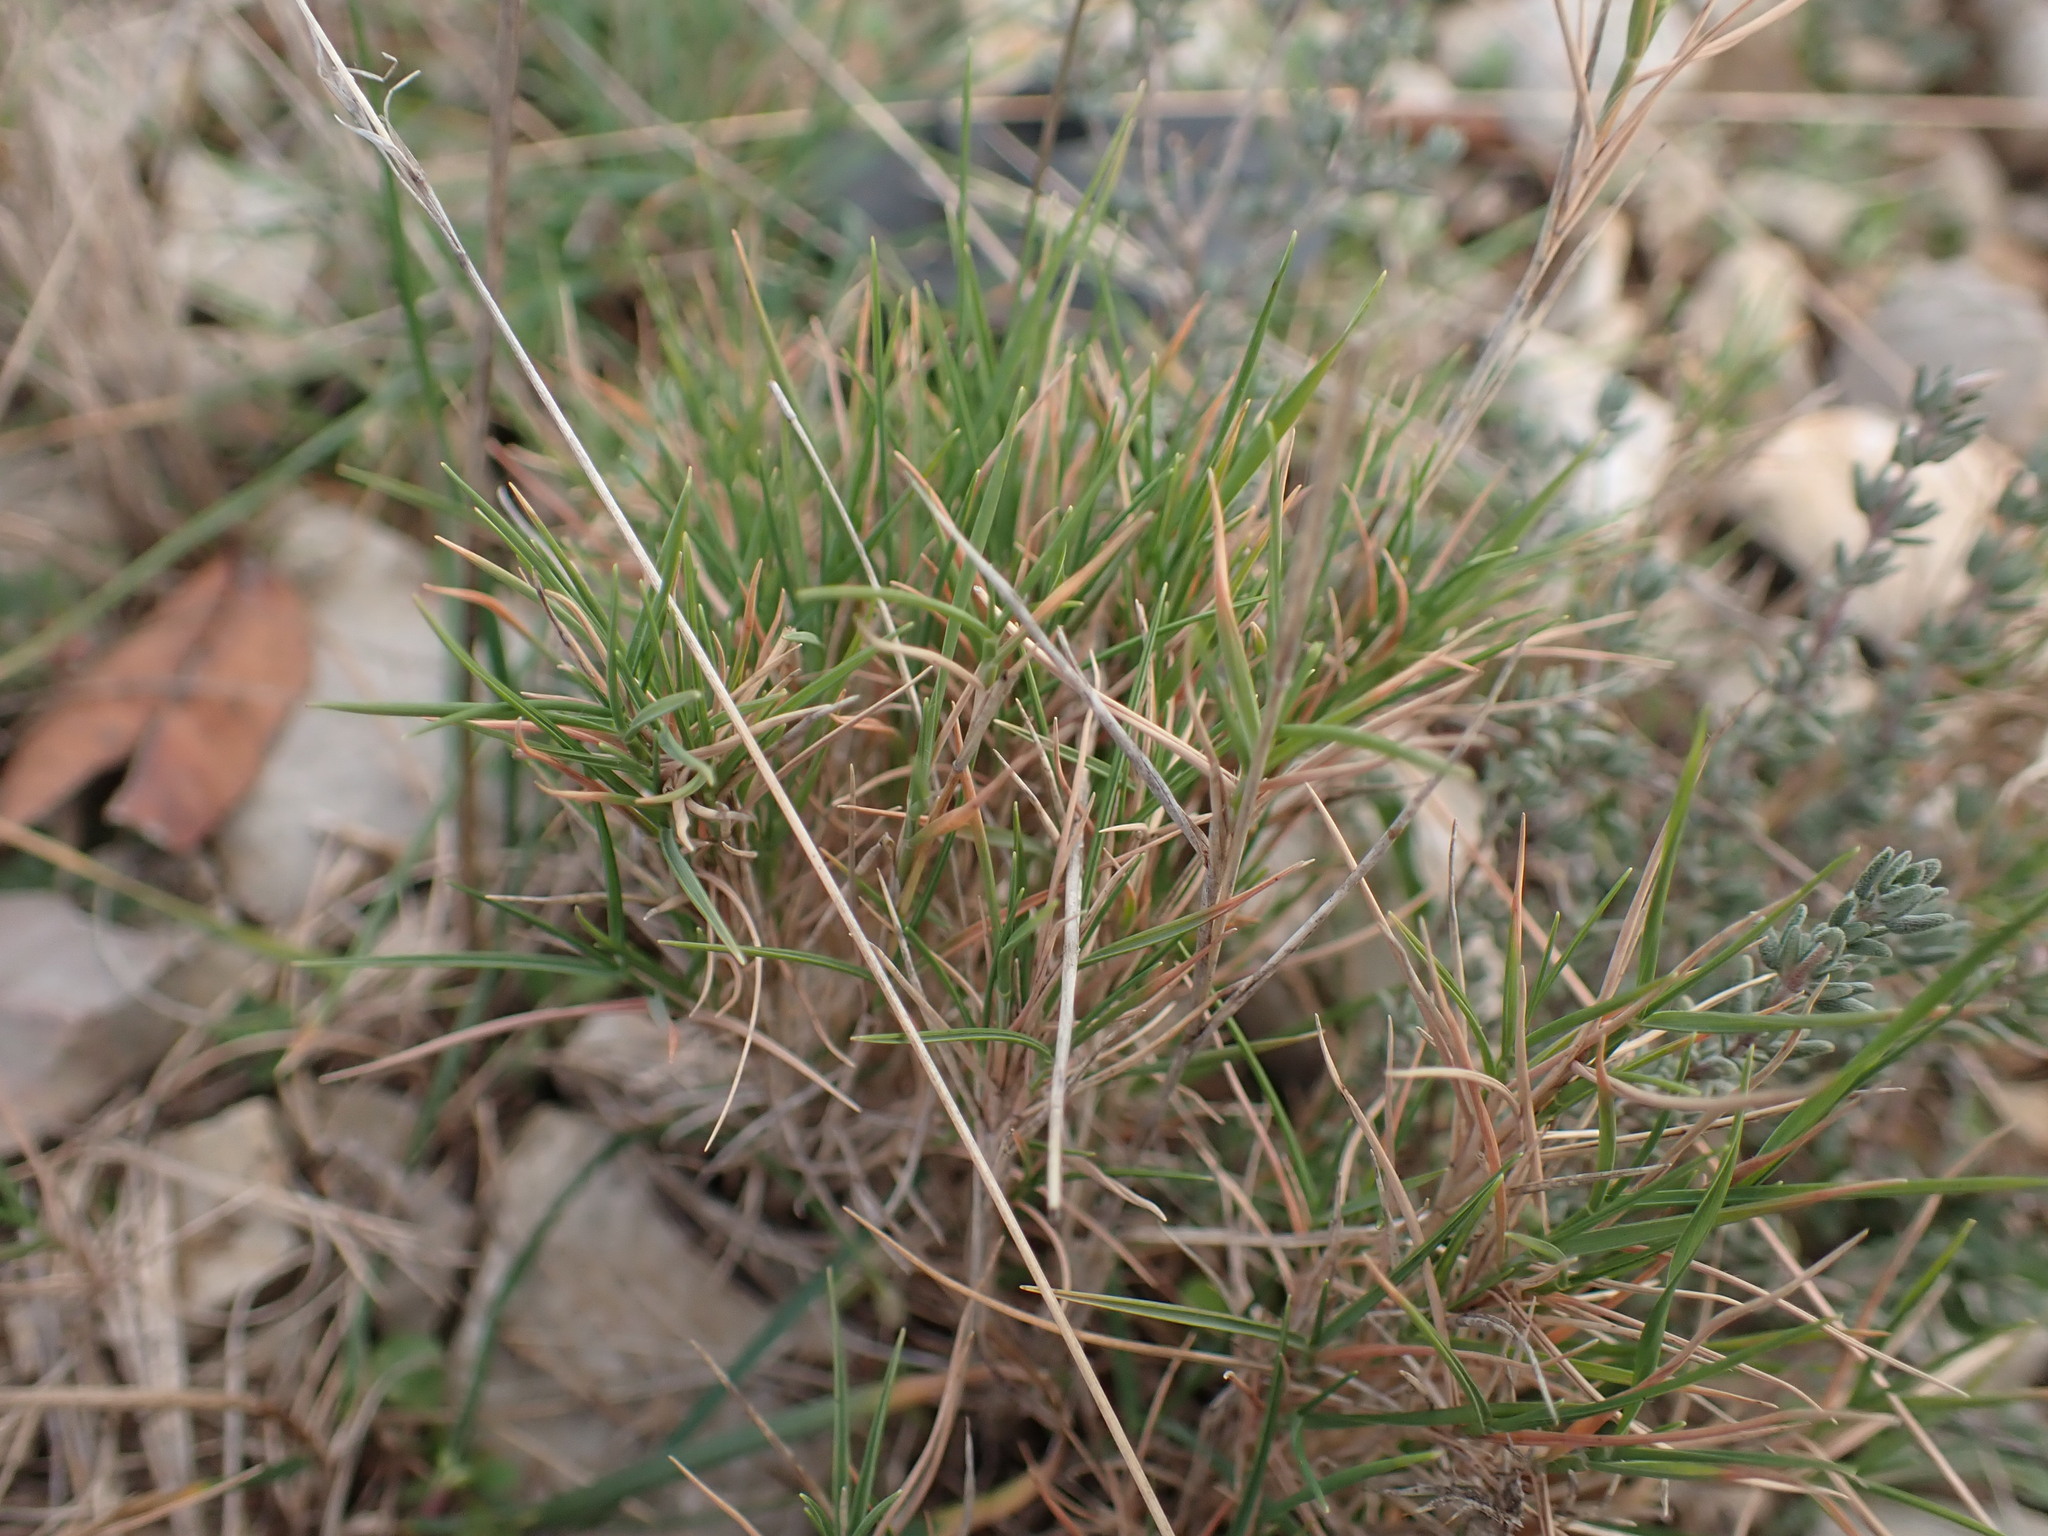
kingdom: Plantae
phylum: Tracheophyta
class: Liliopsida
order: Poales
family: Poaceae
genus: Brachypodium
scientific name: Brachypodium retusum
